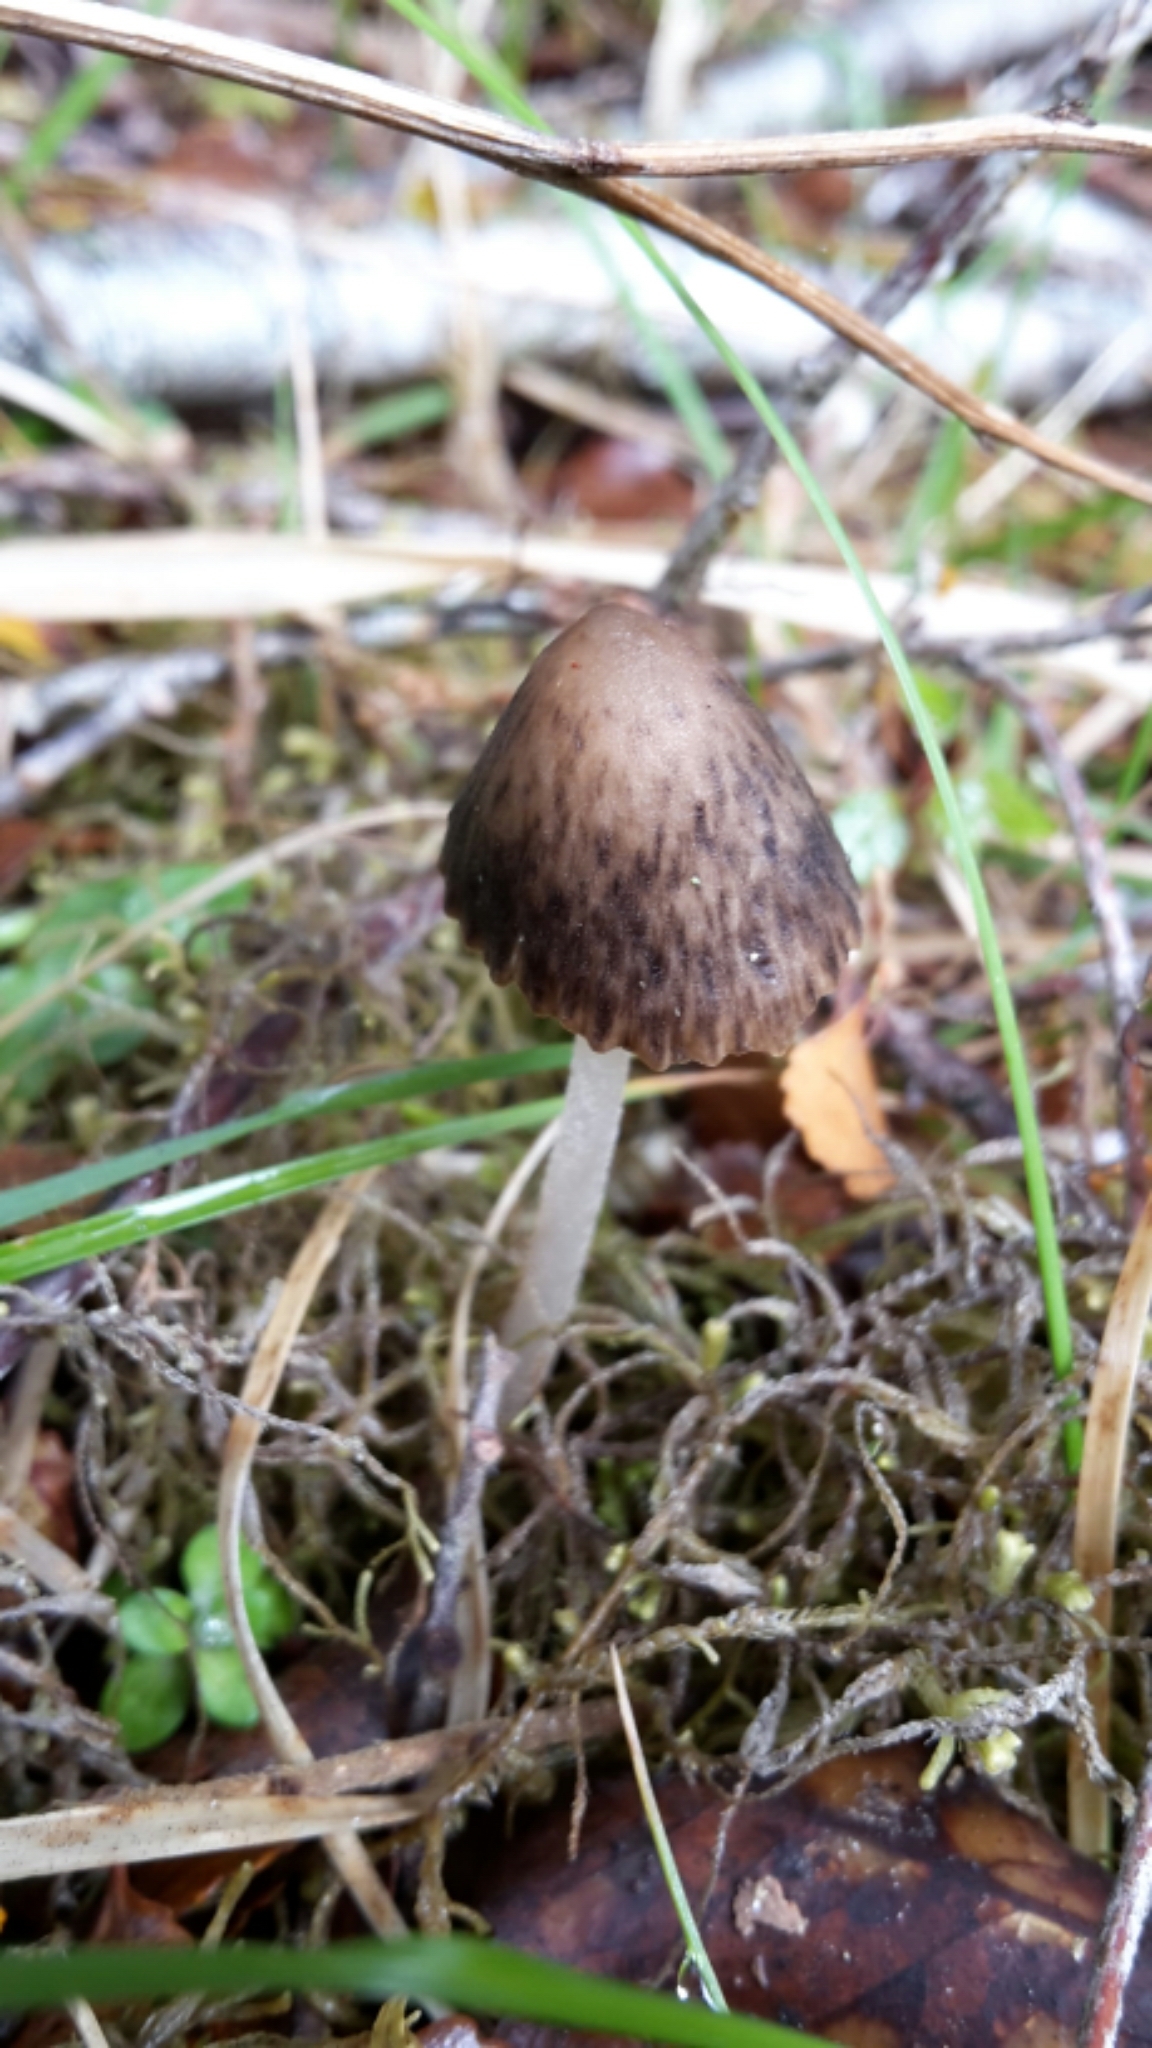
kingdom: Fungi
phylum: Basidiomycota
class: Agaricomycetes
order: Agaricales
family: Porotheleaceae
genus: Pseudohydropus
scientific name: Pseudohydropus parafunebris
